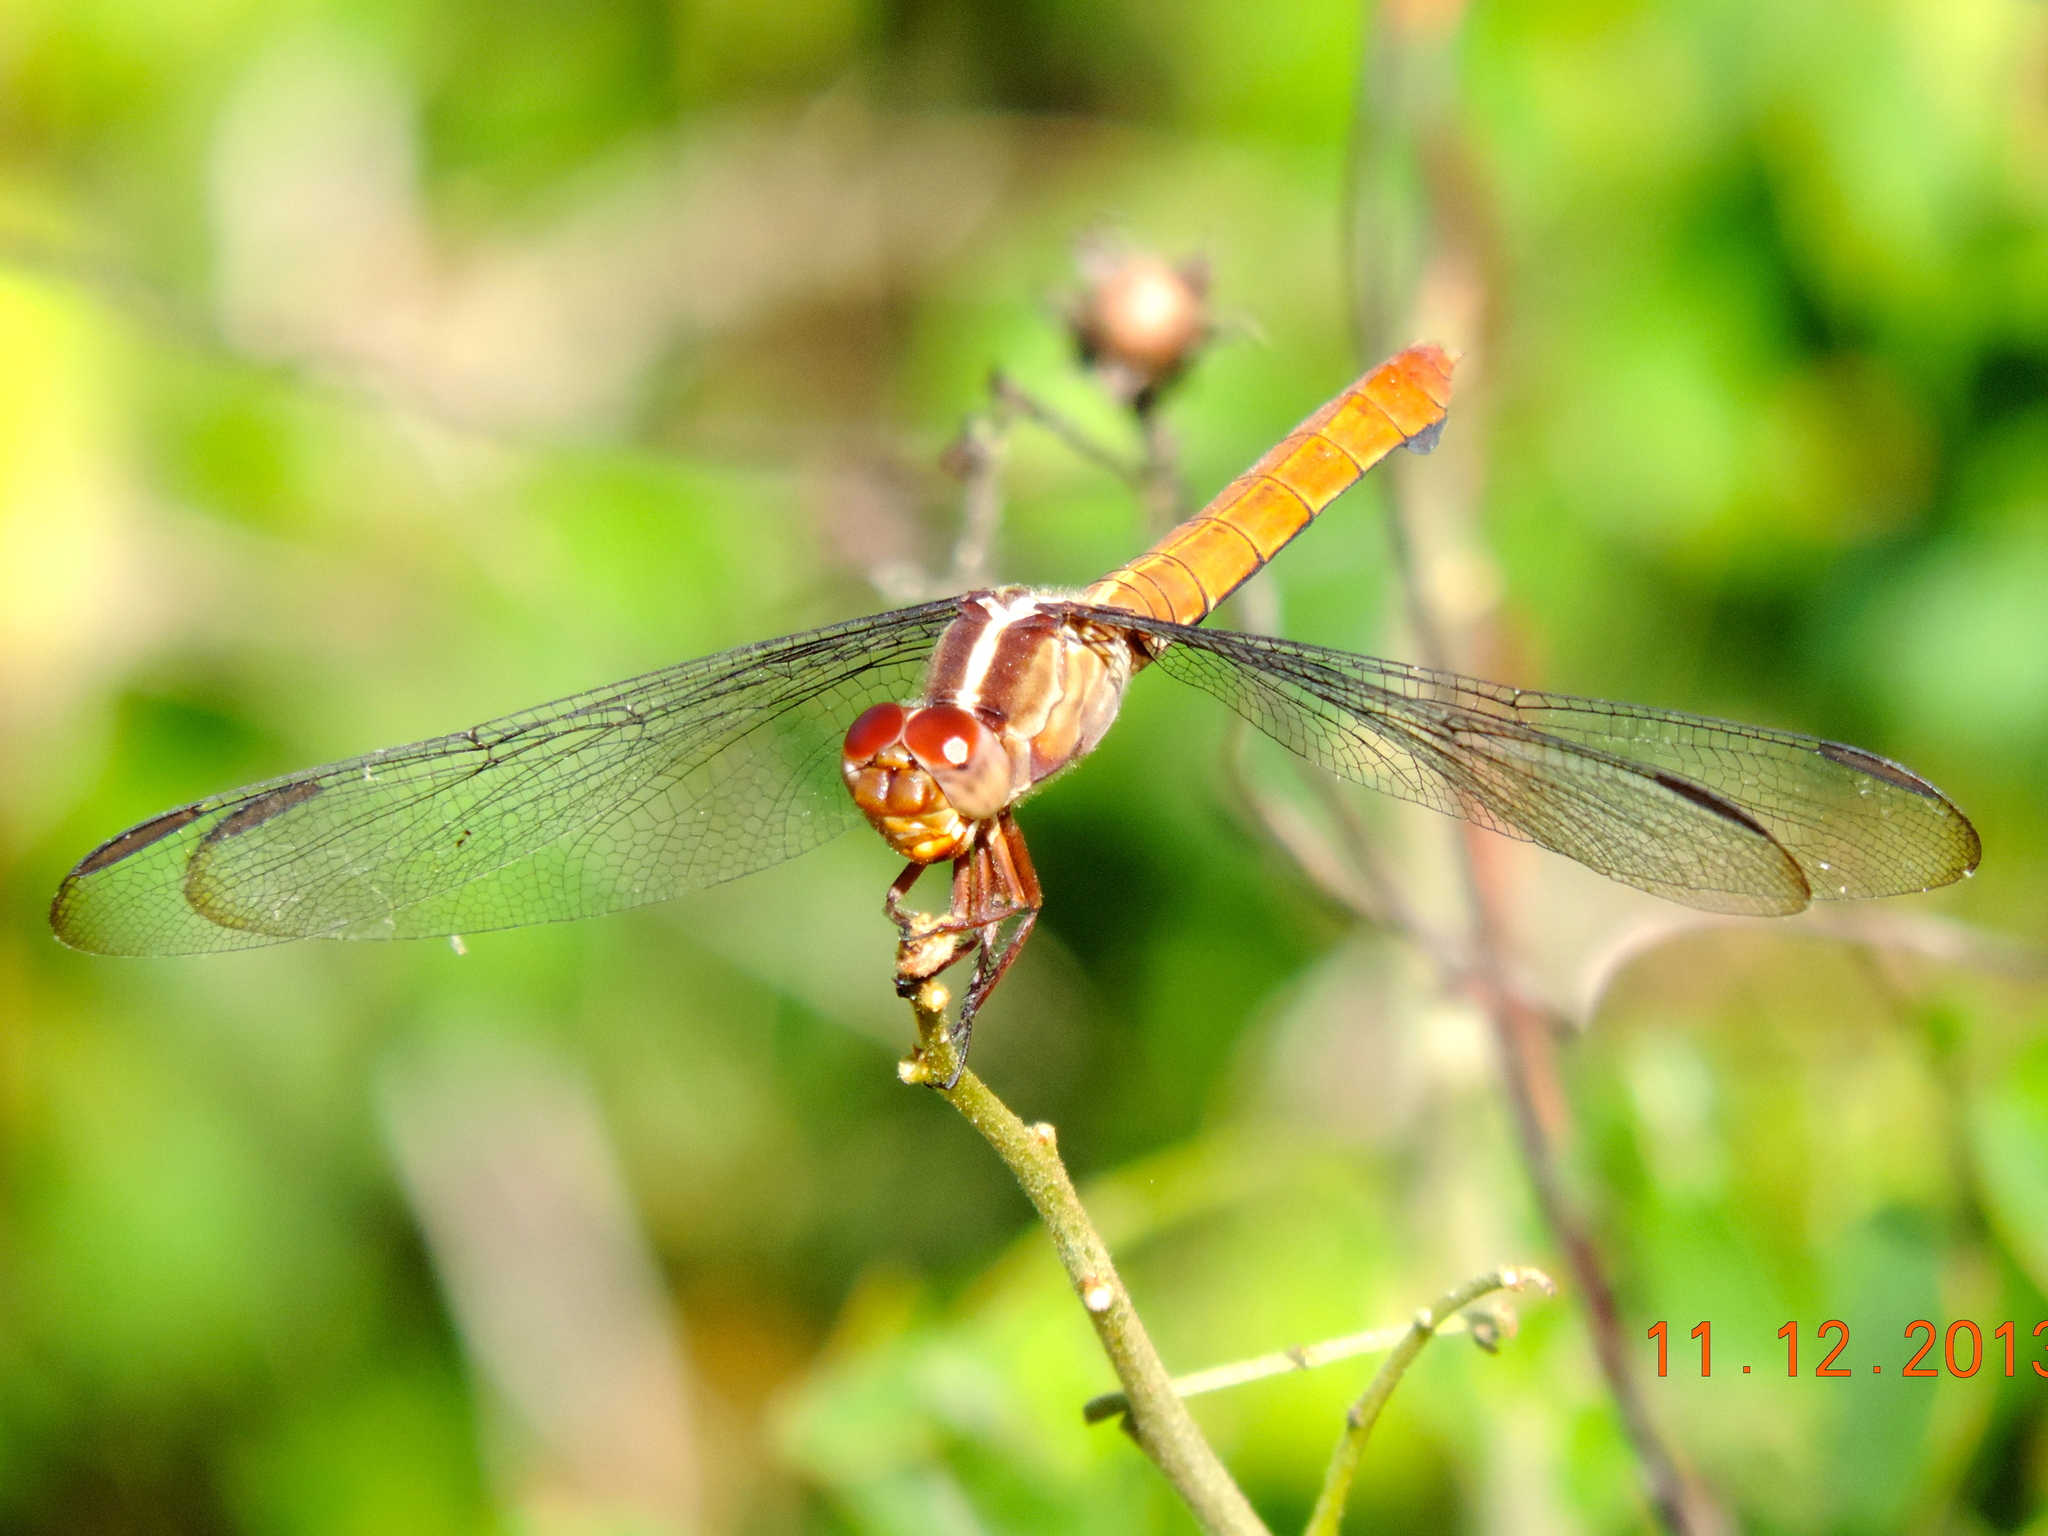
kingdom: Animalia
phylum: Arthropoda
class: Insecta
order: Odonata
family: Libellulidae
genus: Orthemis
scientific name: Orthemis discolor
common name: Carmine skimmer
